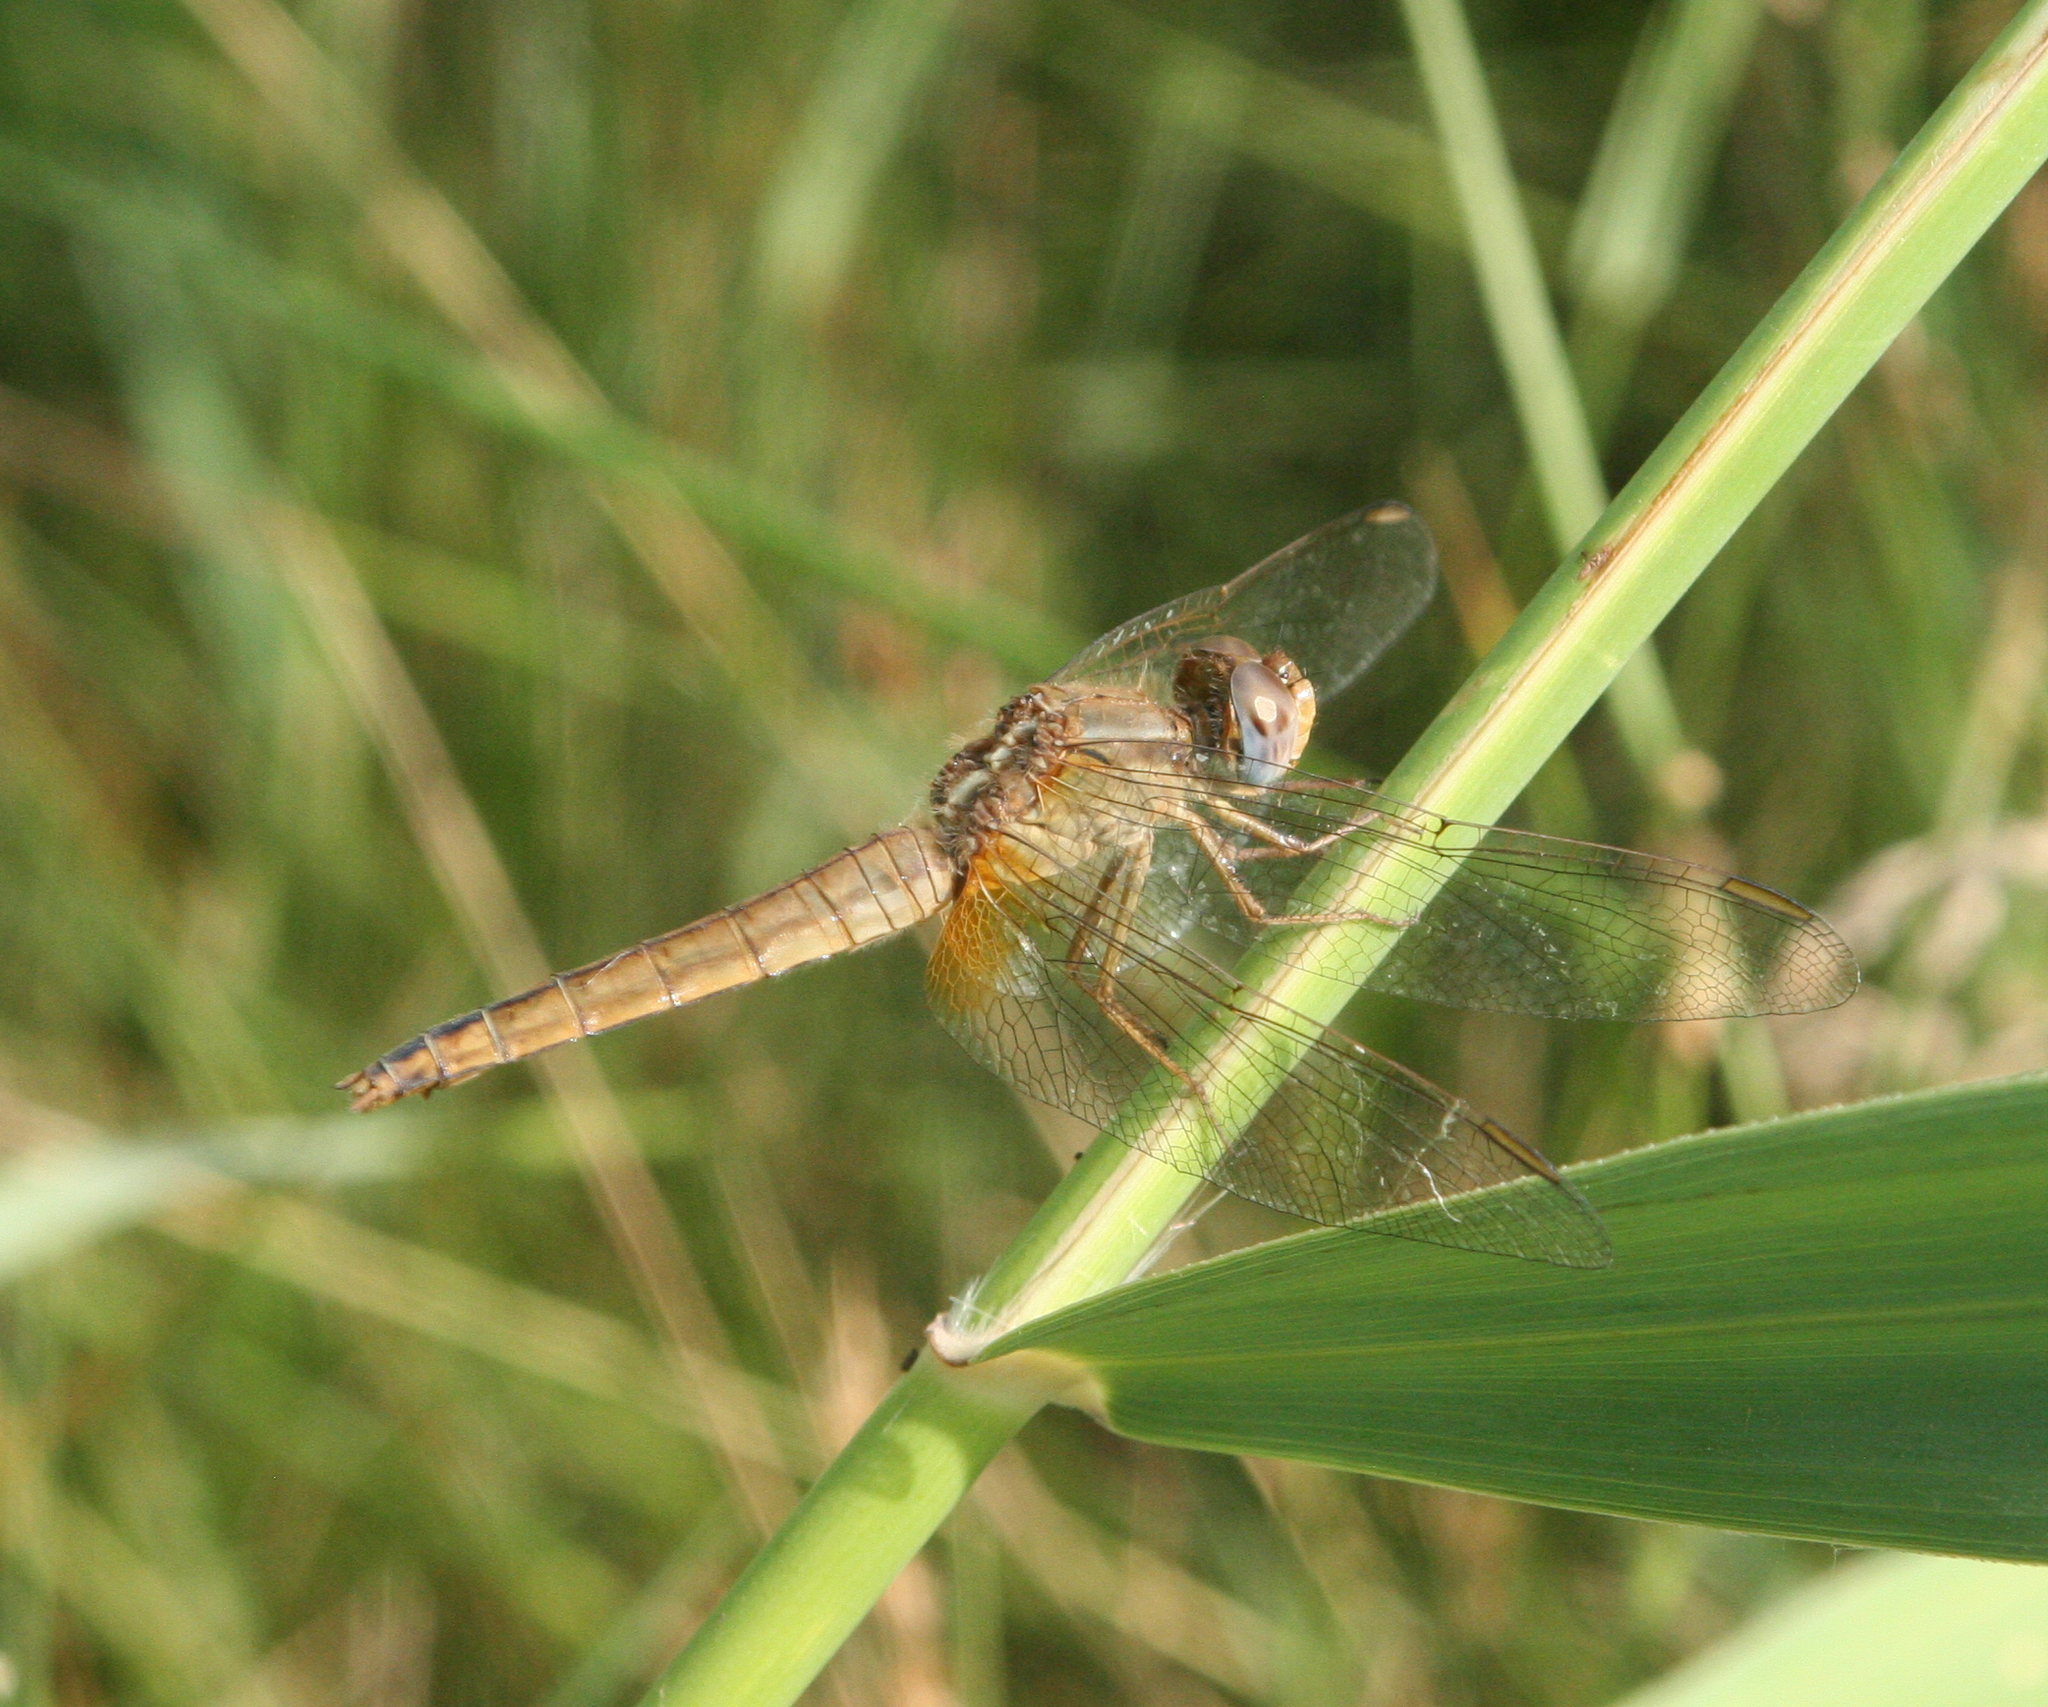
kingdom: Animalia
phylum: Arthropoda
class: Insecta
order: Odonata
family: Libellulidae
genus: Crocothemis
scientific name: Crocothemis erythraea
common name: Scarlet dragonfly
